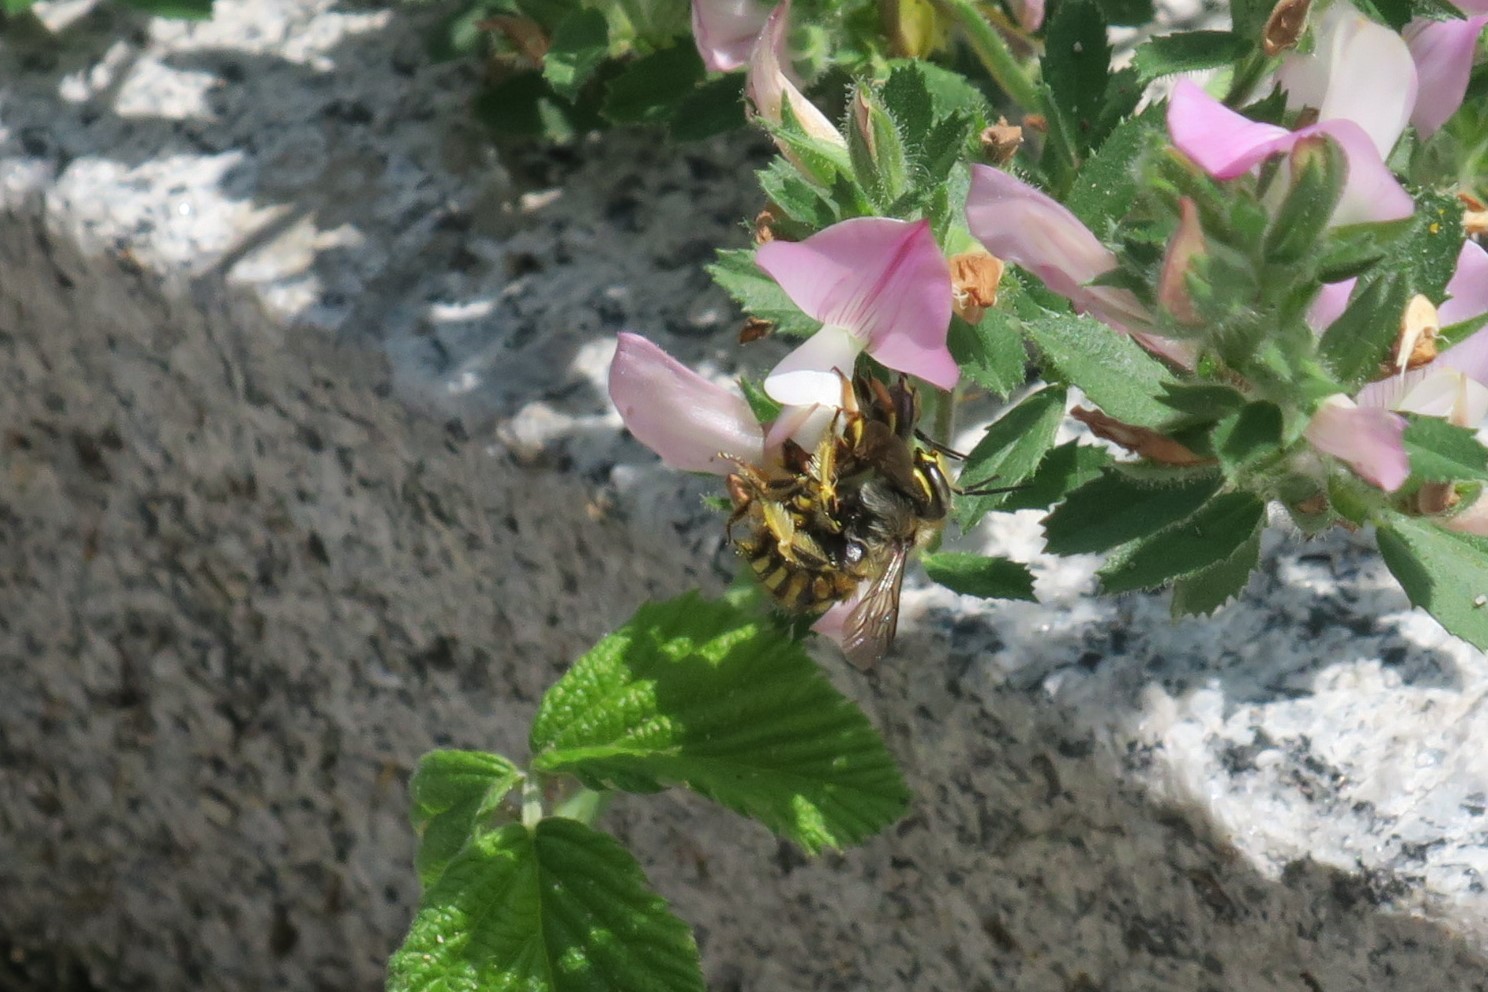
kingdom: Animalia
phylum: Arthropoda
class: Insecta
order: Hymenoptera
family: Megachilidae
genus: Anthidium
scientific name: Anthidium manicatum
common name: Wool carder bee
